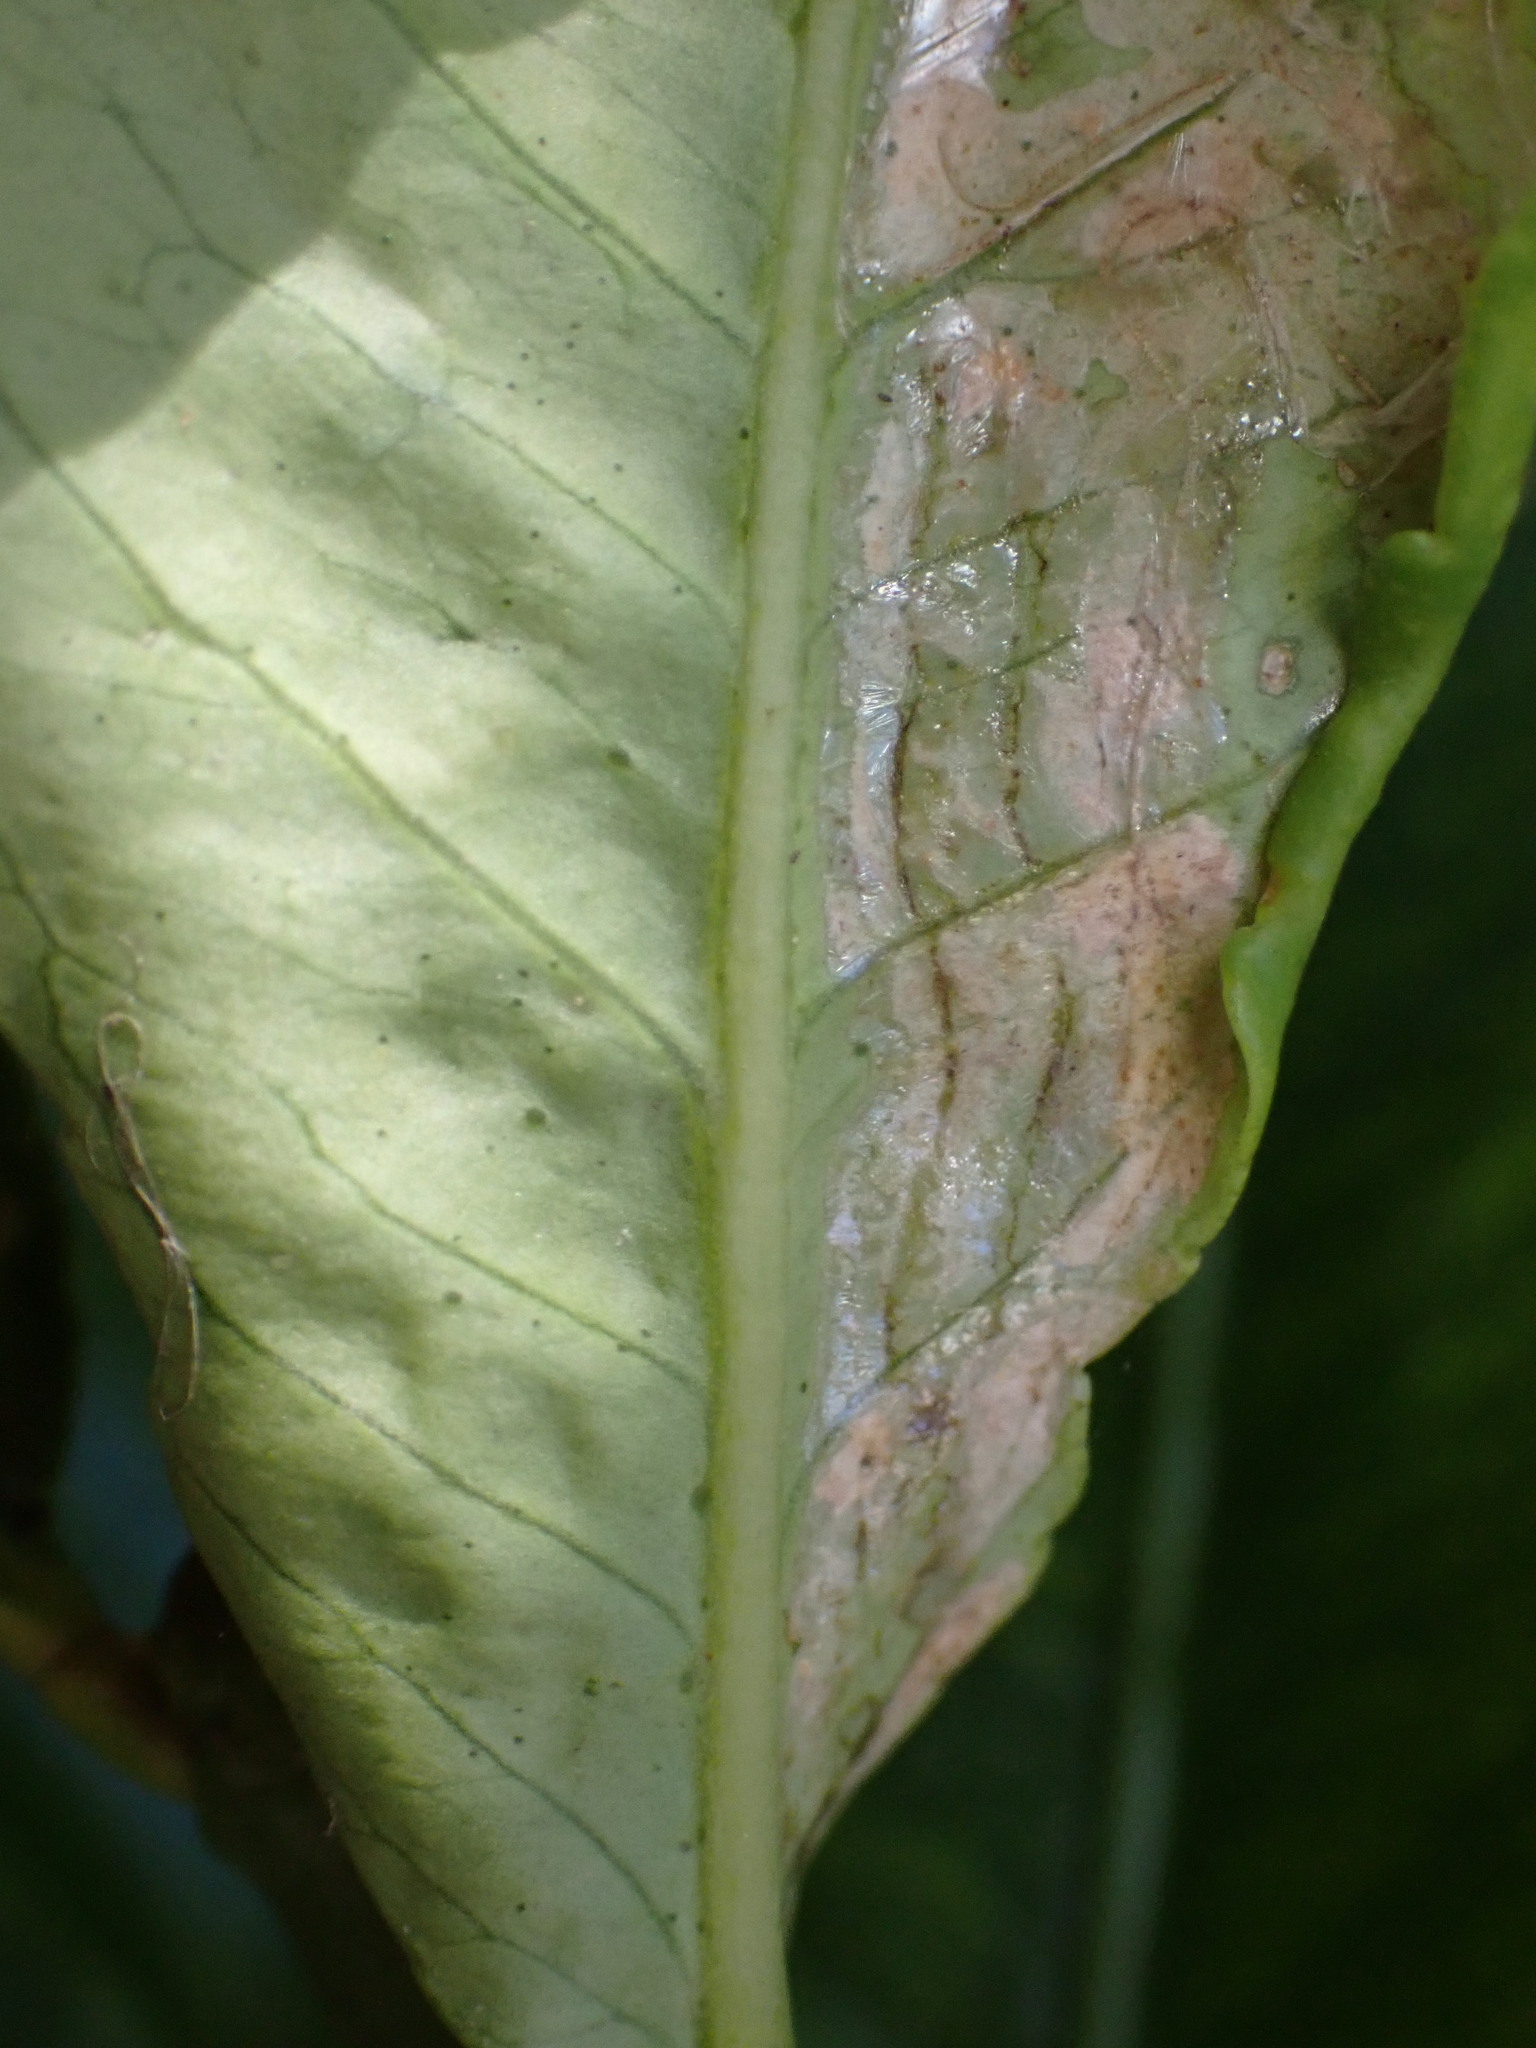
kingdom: Animalia
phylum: Arthropoda
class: Insecta
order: Lepidoptera
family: Gracillariidae
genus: Phyllocnistis
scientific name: Phyllocnistis citrella
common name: Citrus leafminer
